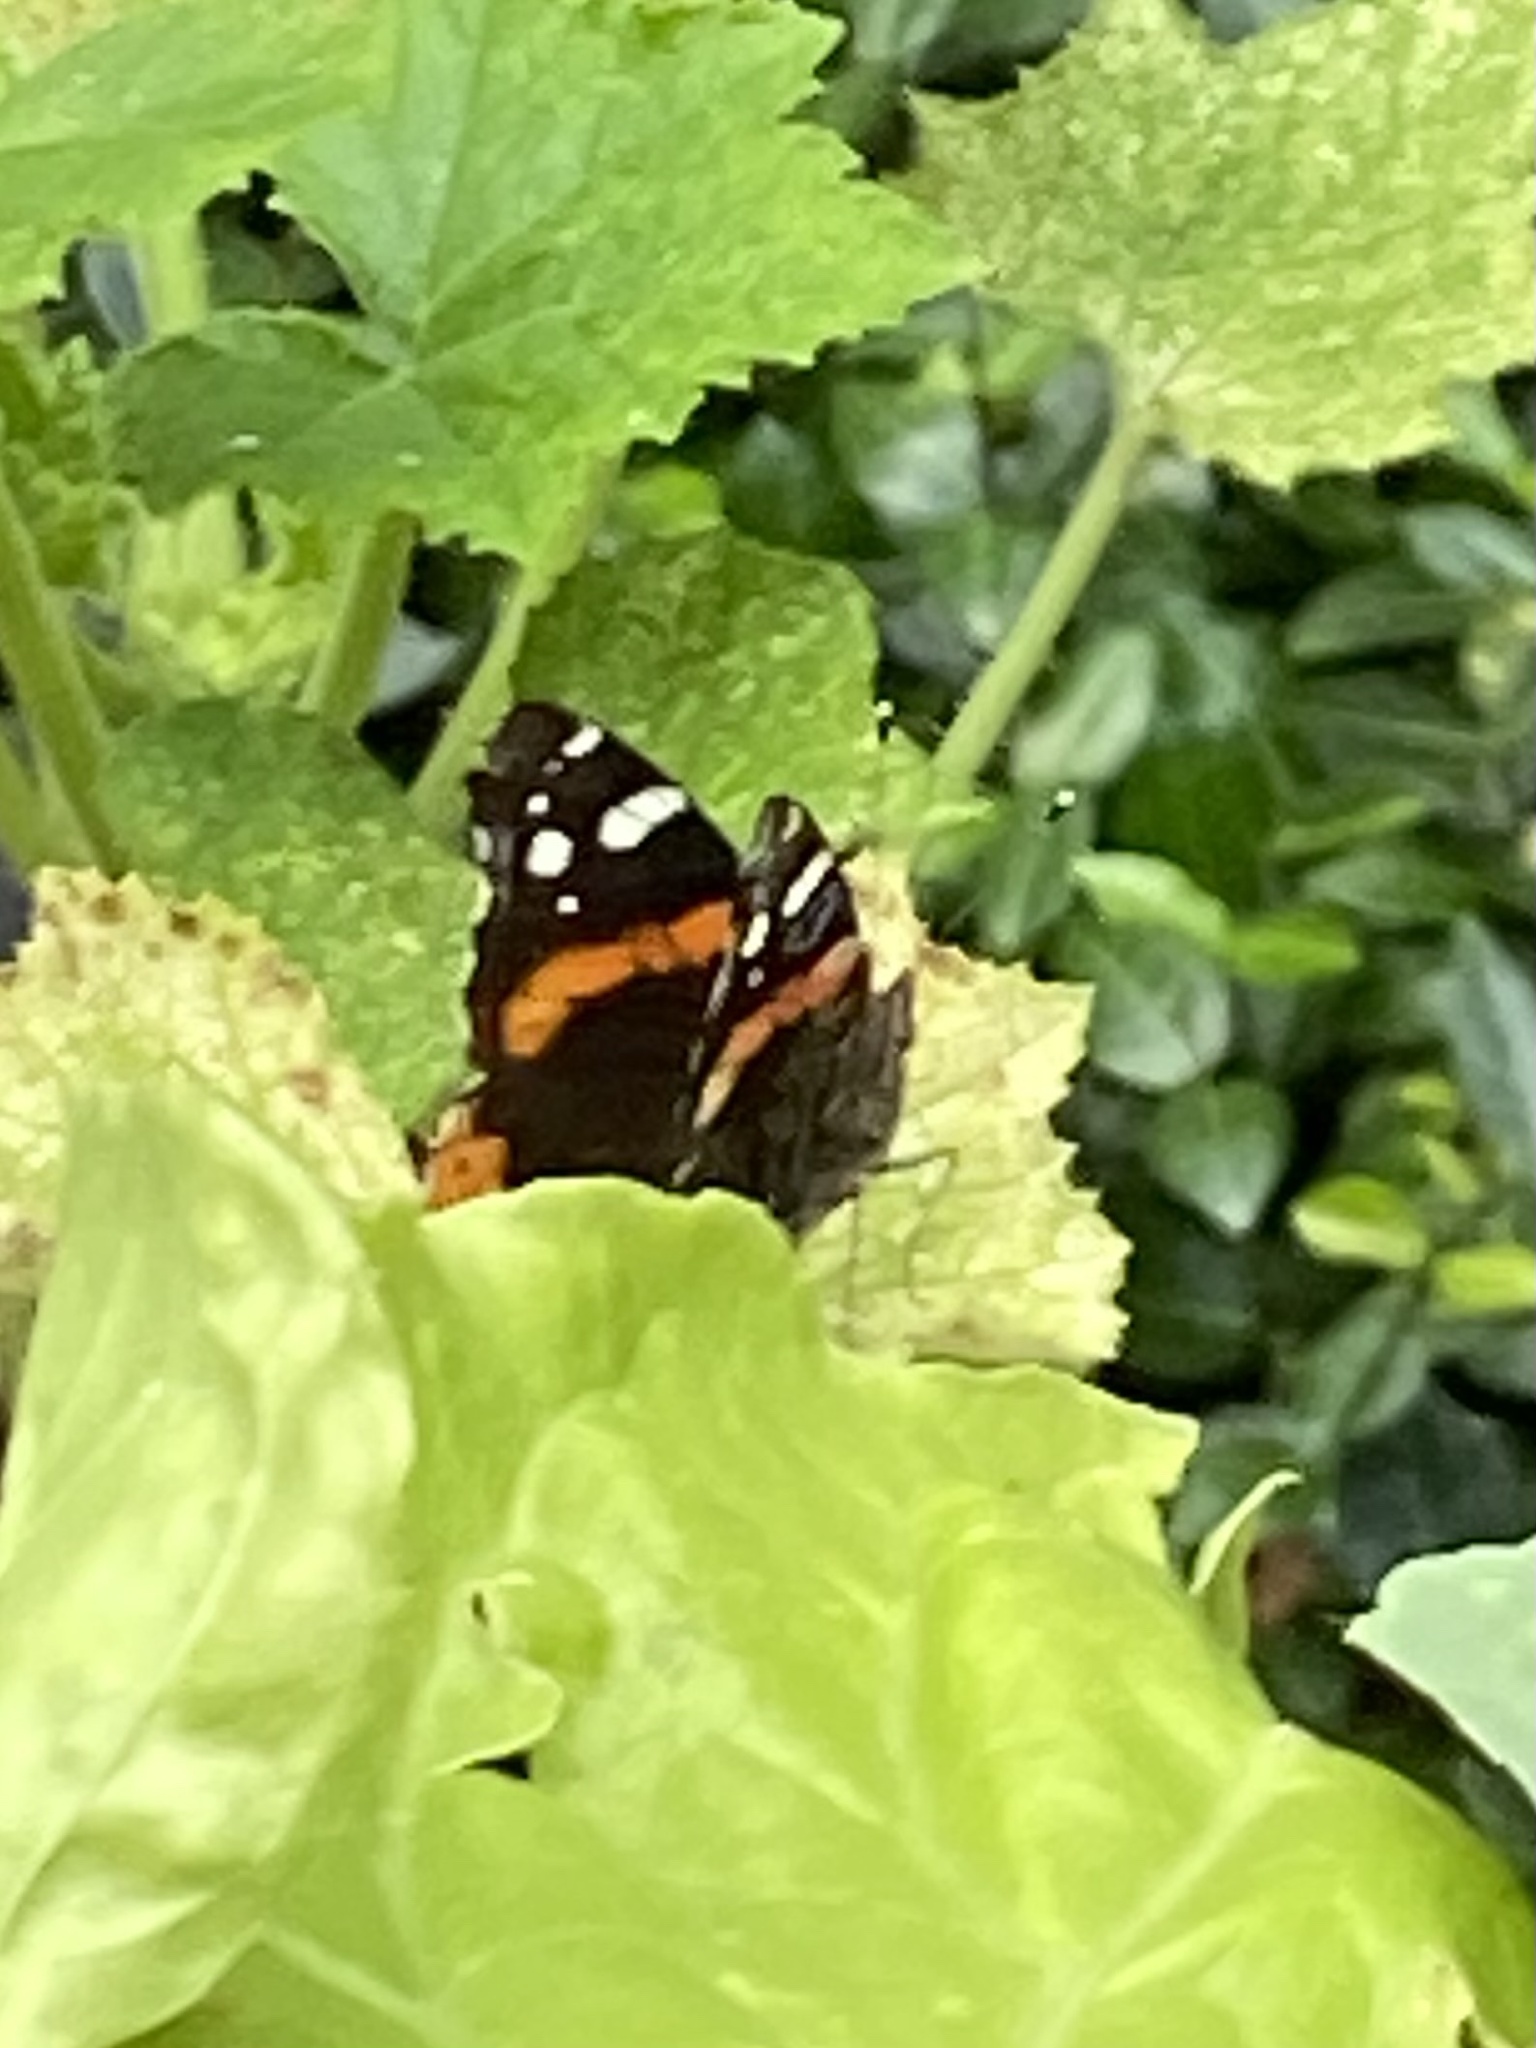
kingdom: Animalia
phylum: Arthropoda
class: Insecta
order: Lepidoptera
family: Nymphalidae
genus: Vanessa
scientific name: Vanessa atalanta
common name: Red admiral
